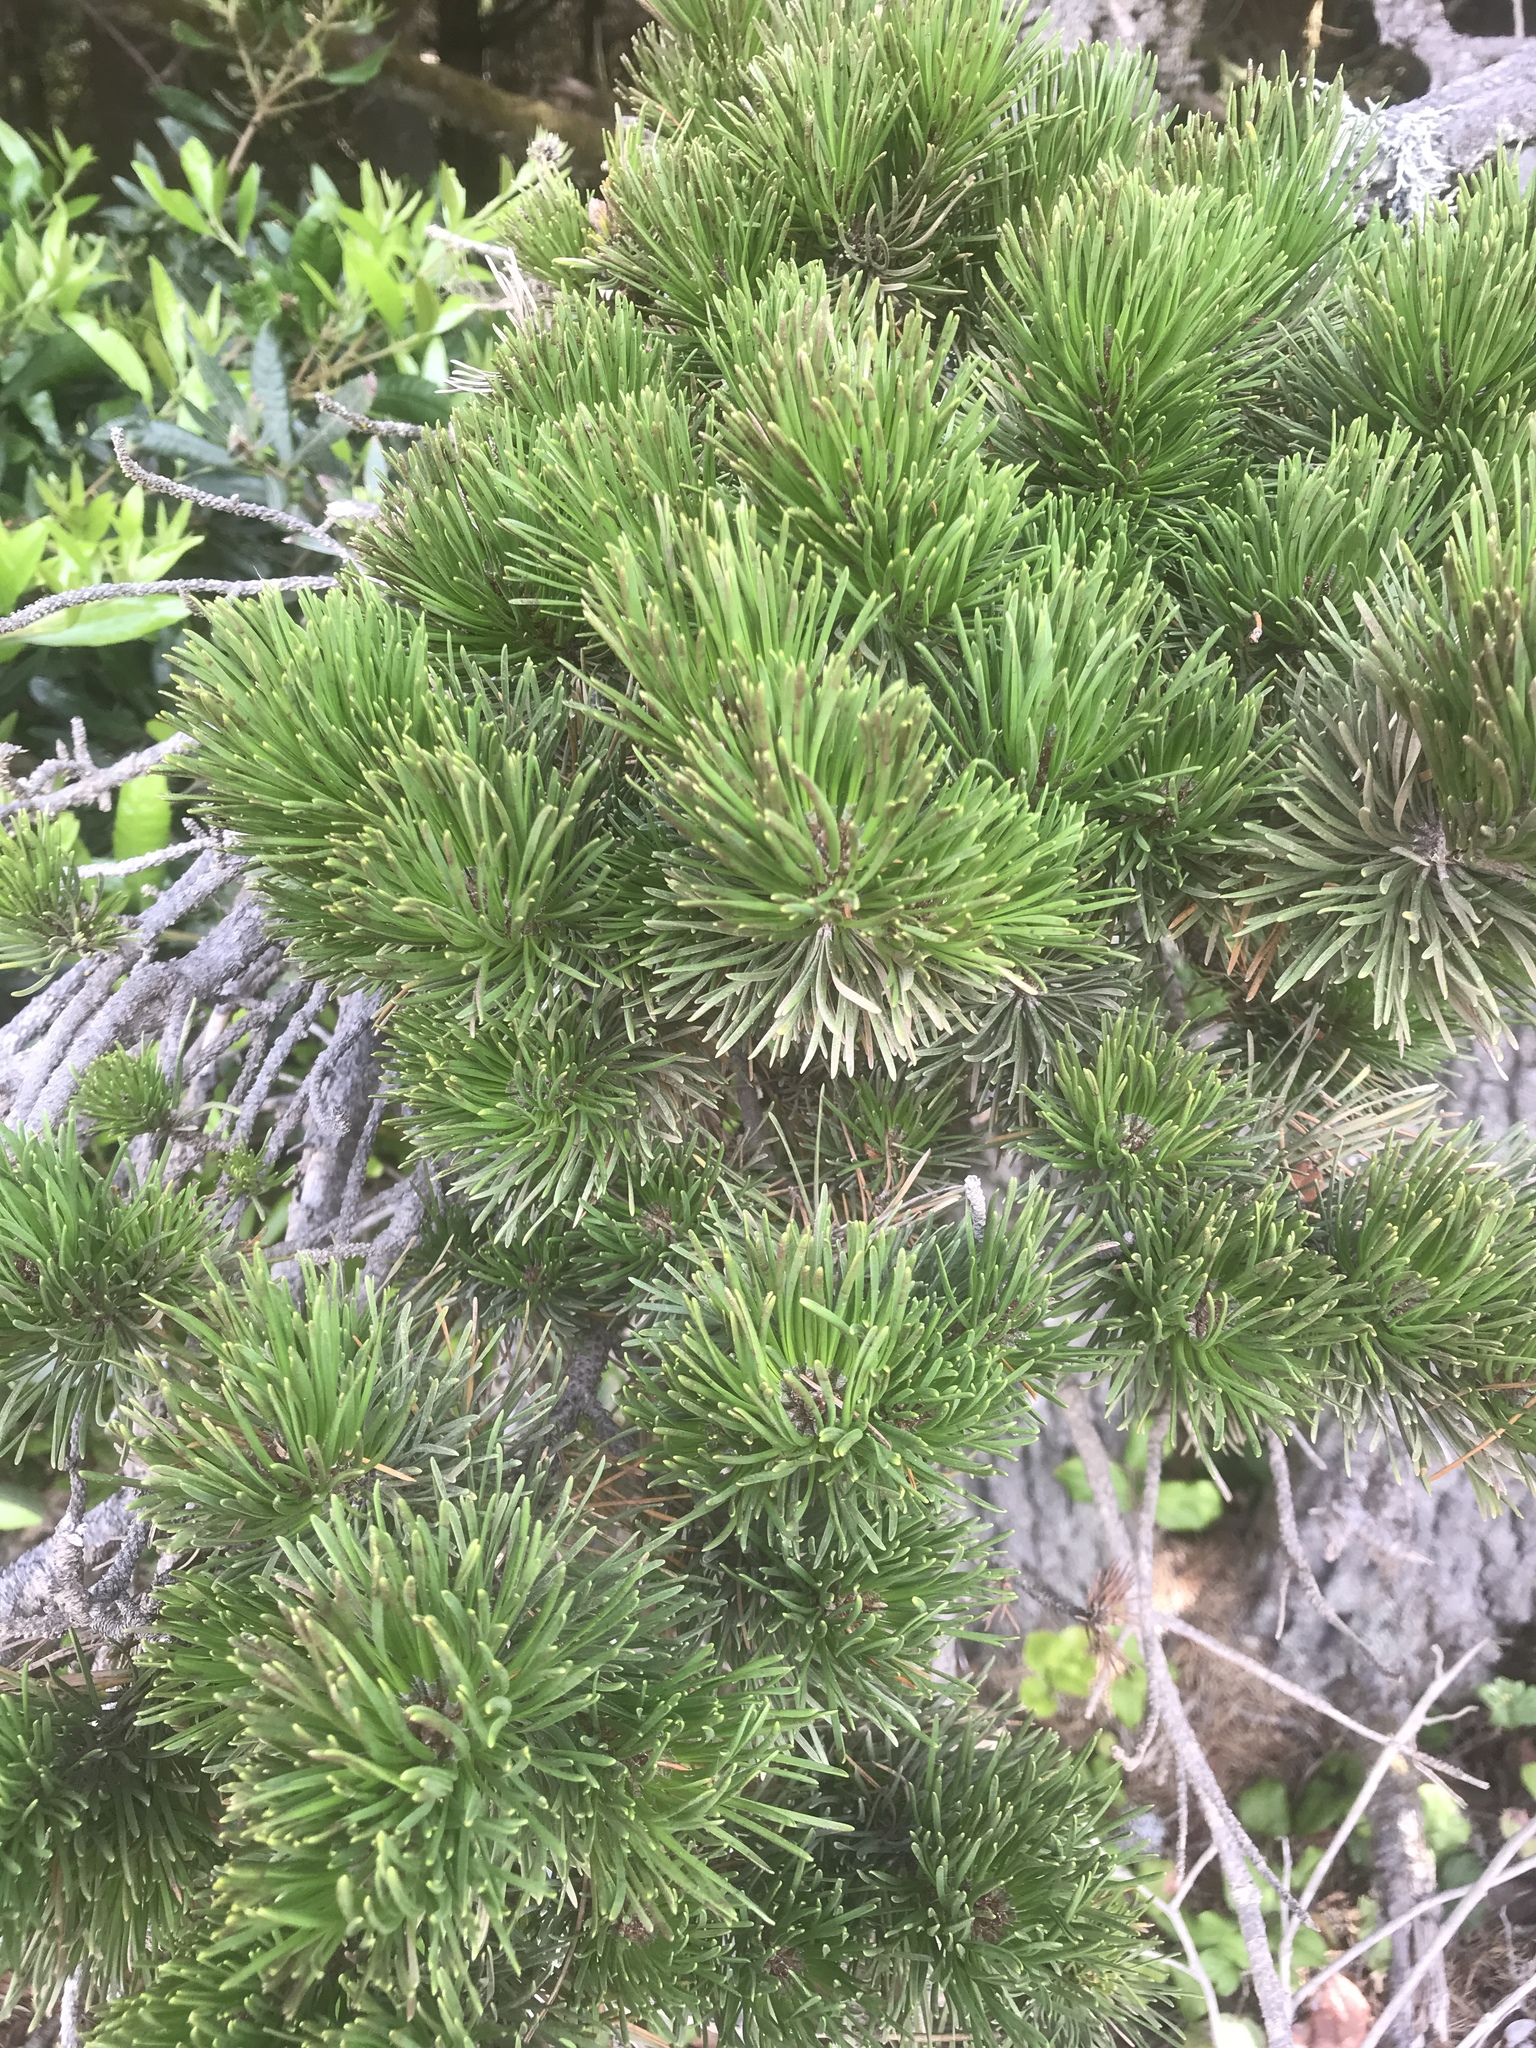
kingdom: Plantae
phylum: Tracheophyta
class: Pinopsida
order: Pinales
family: Pinaceae
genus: Pinus
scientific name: Pinus contorta
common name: Lodgepole pine
